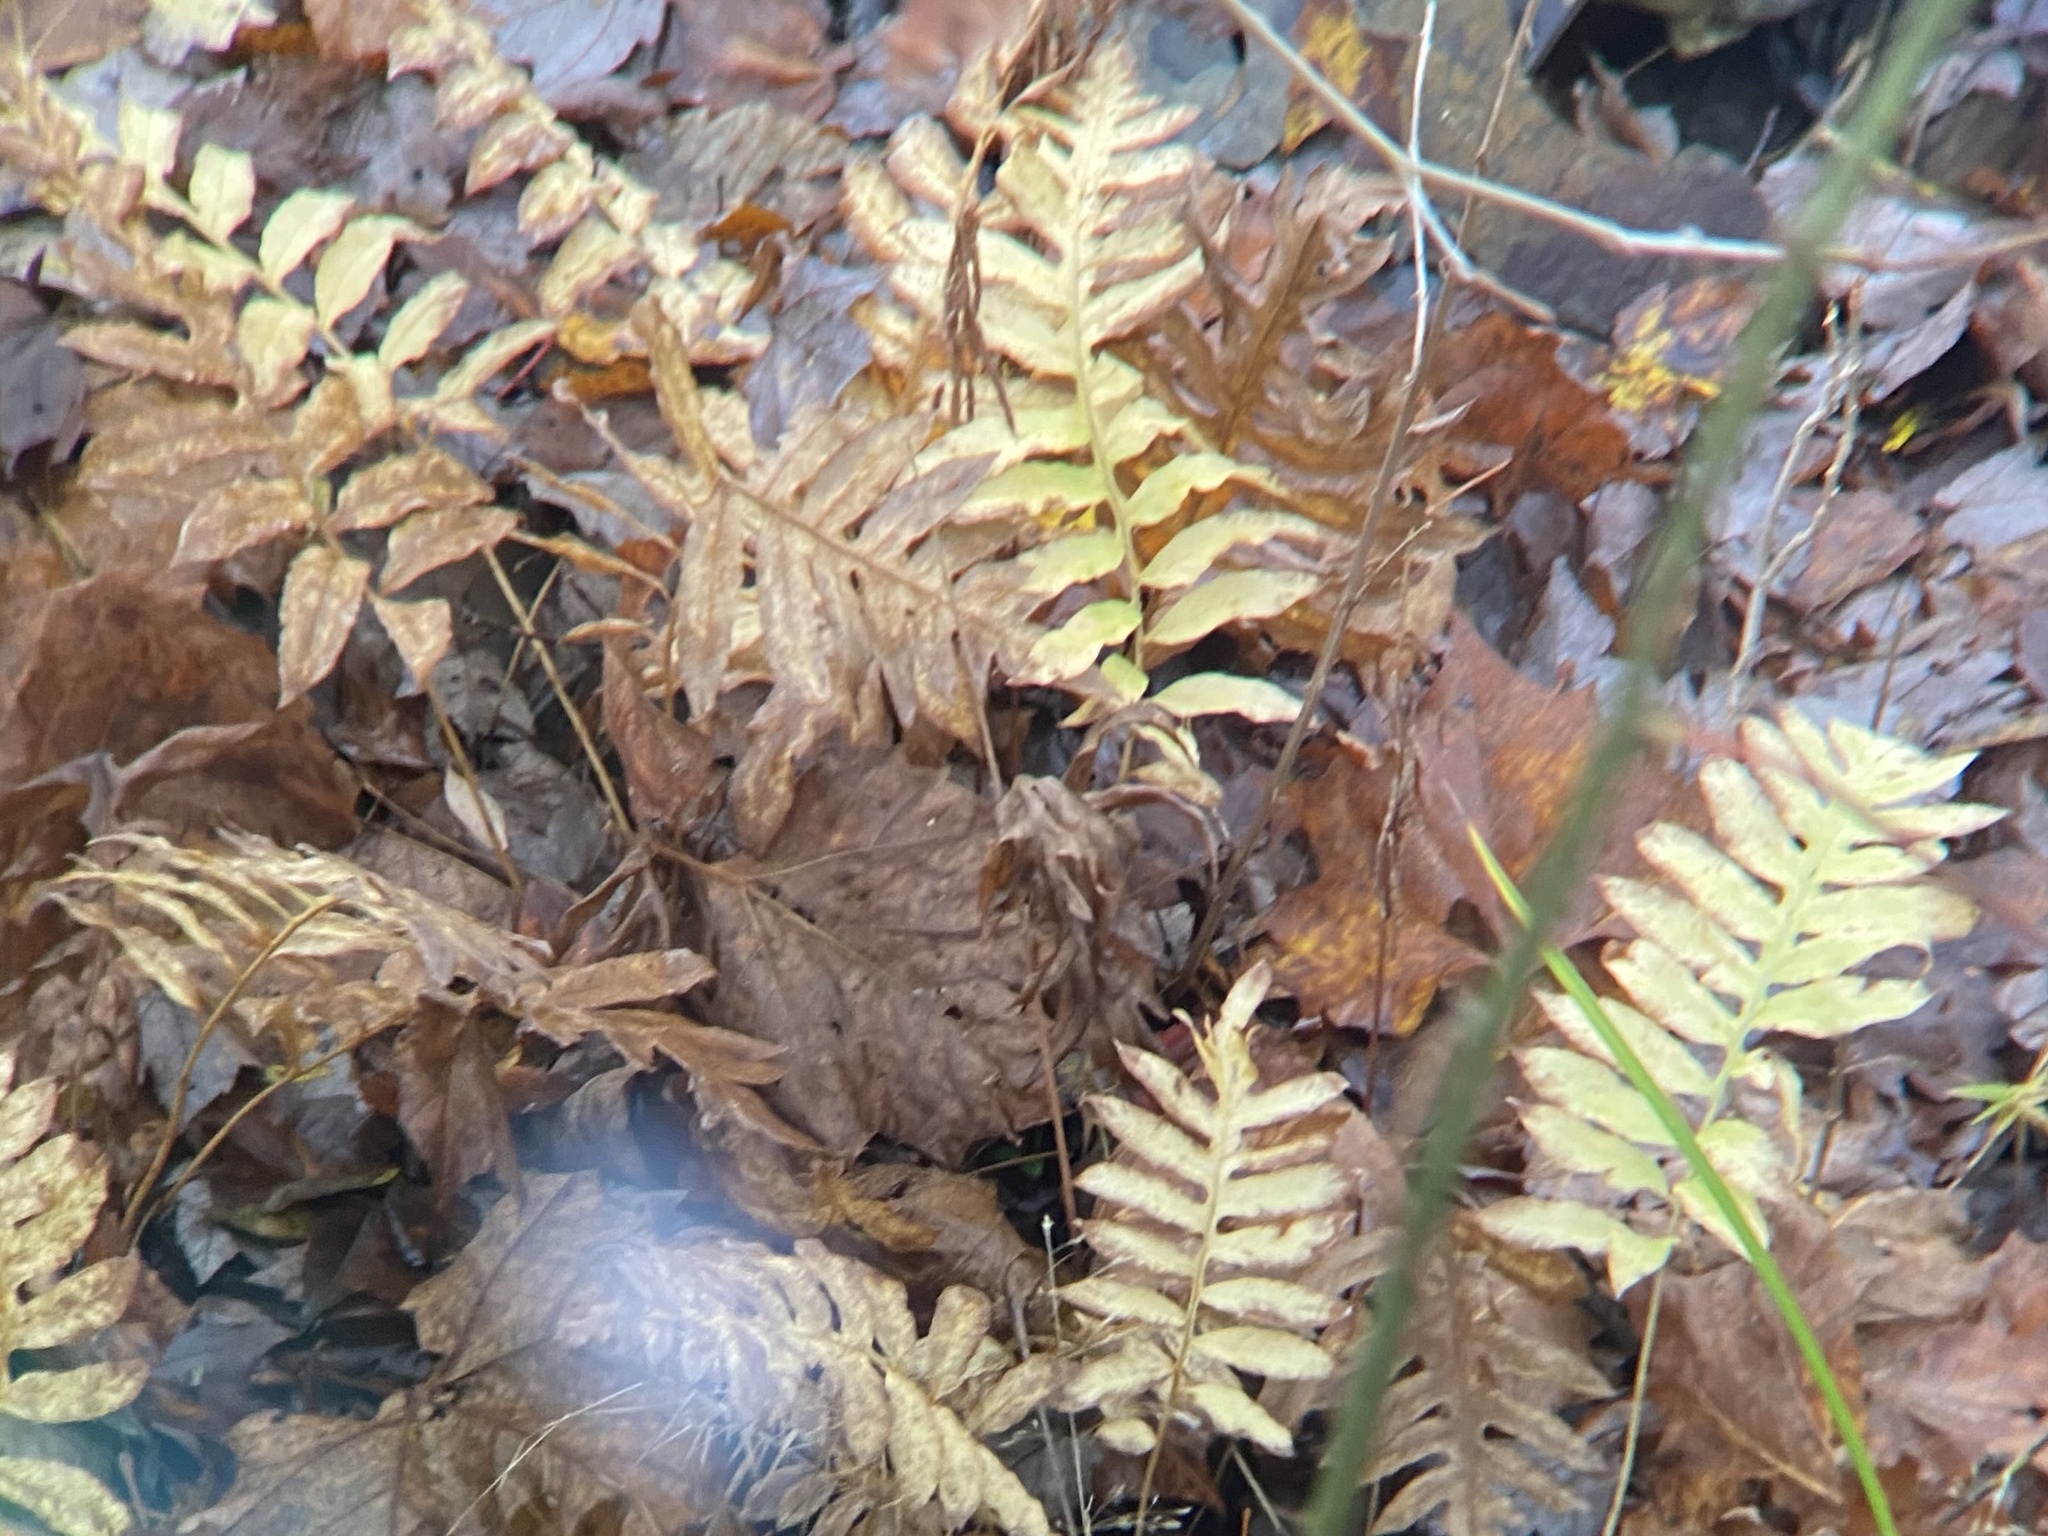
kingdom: Plantae
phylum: Tracheophyta
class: Polypodiopsida
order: Polypodiales
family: Blechnaceae
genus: Lorinseria
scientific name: Lorinseria areolata
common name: Dwarf chain fern
